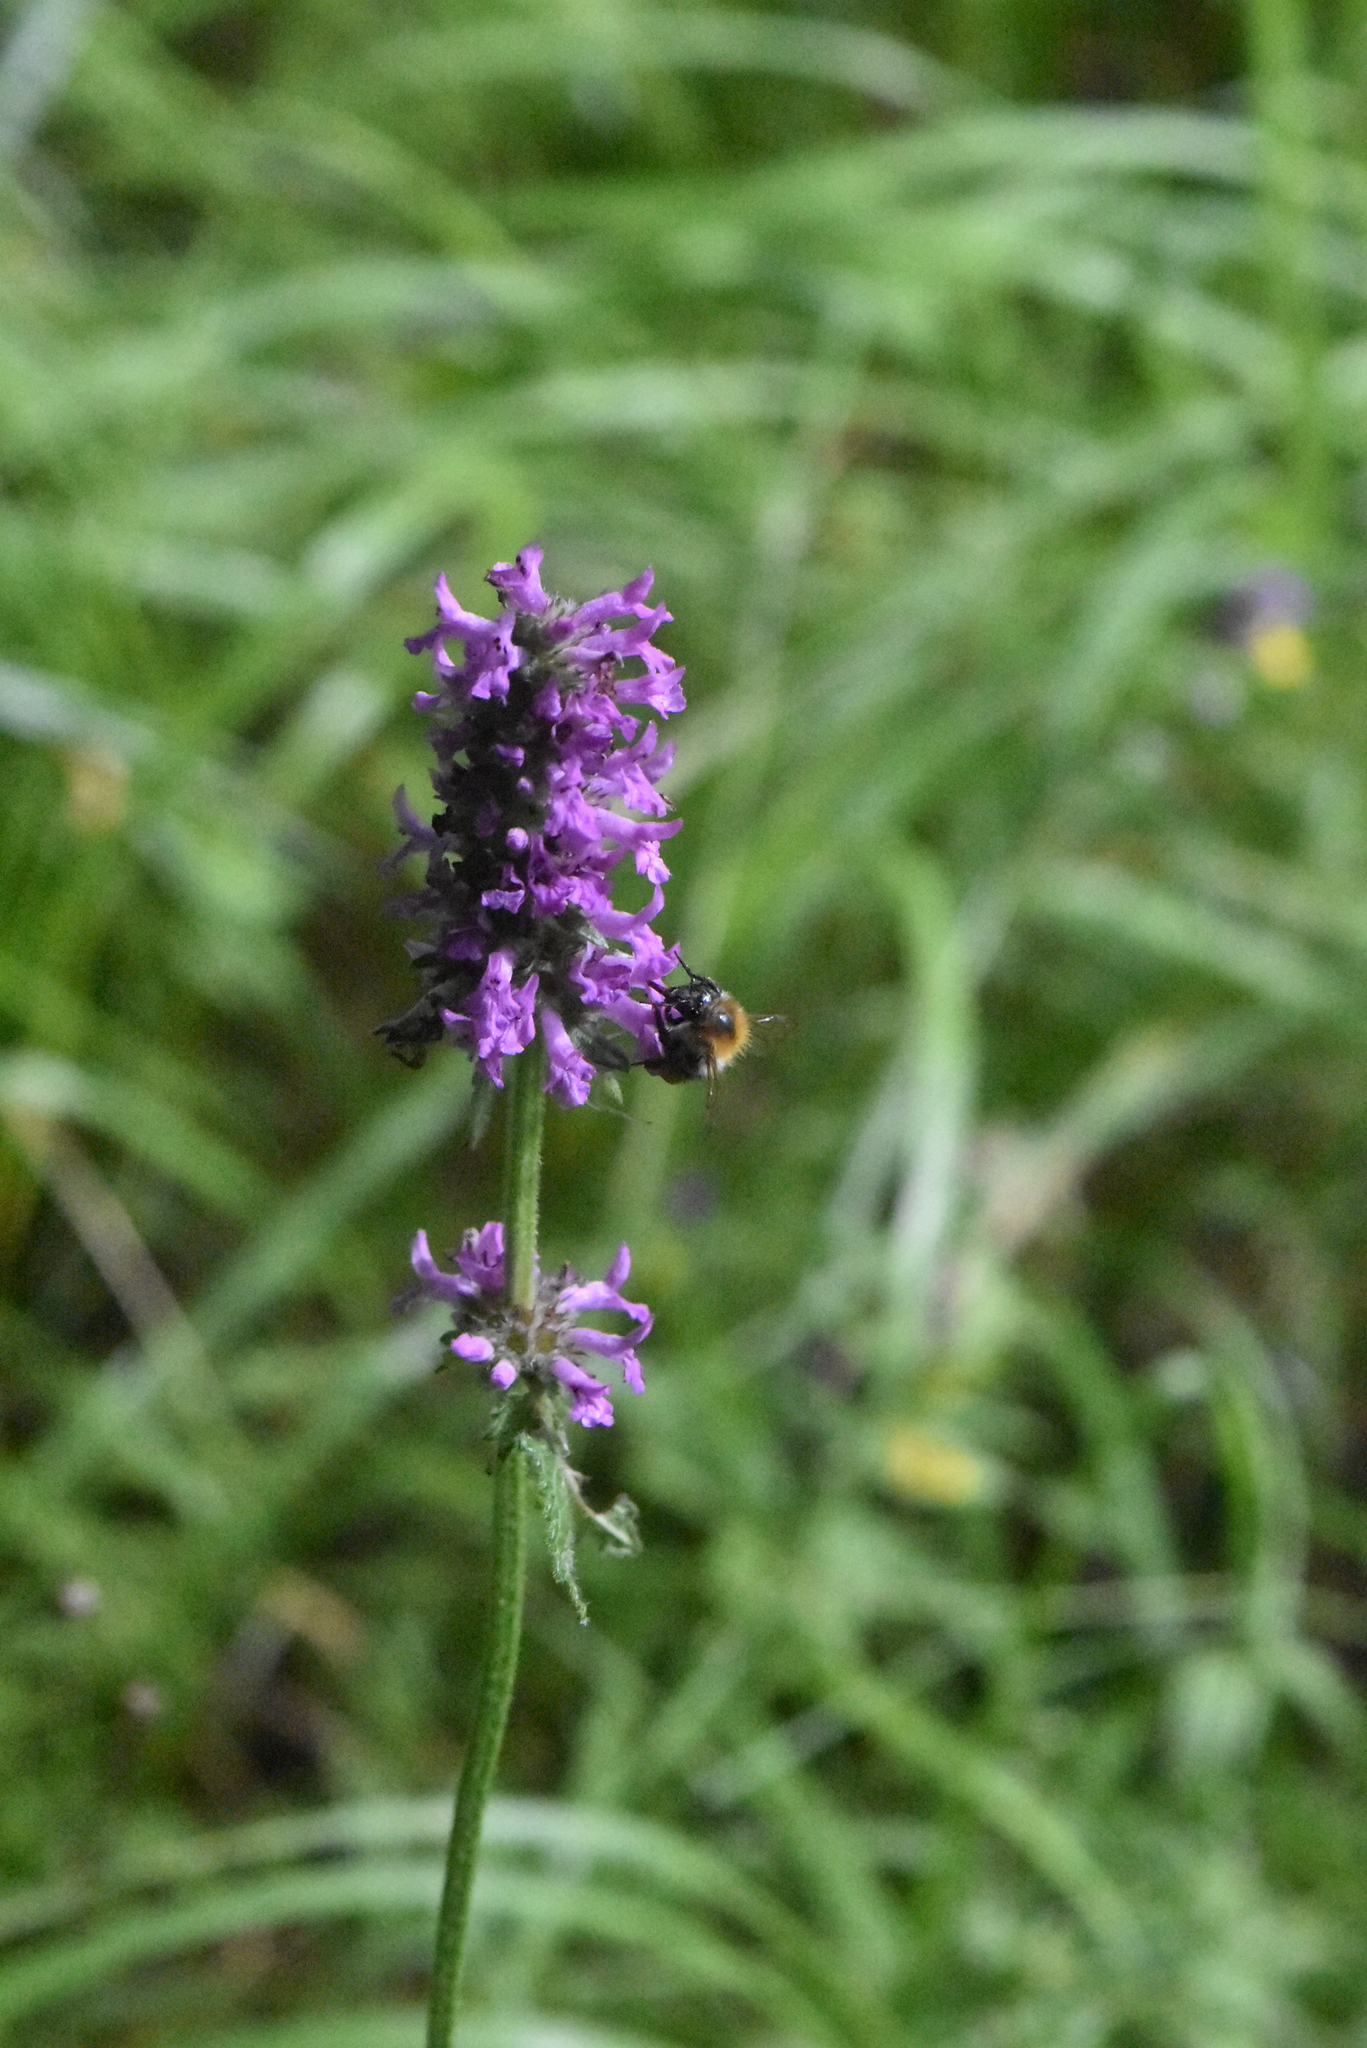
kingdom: Plantae
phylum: Tracheophyta
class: Magnoliopsida
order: Lamiales
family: Lamiaceae
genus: Betonica
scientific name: Betonica officinalis
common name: Bishop's-wort
